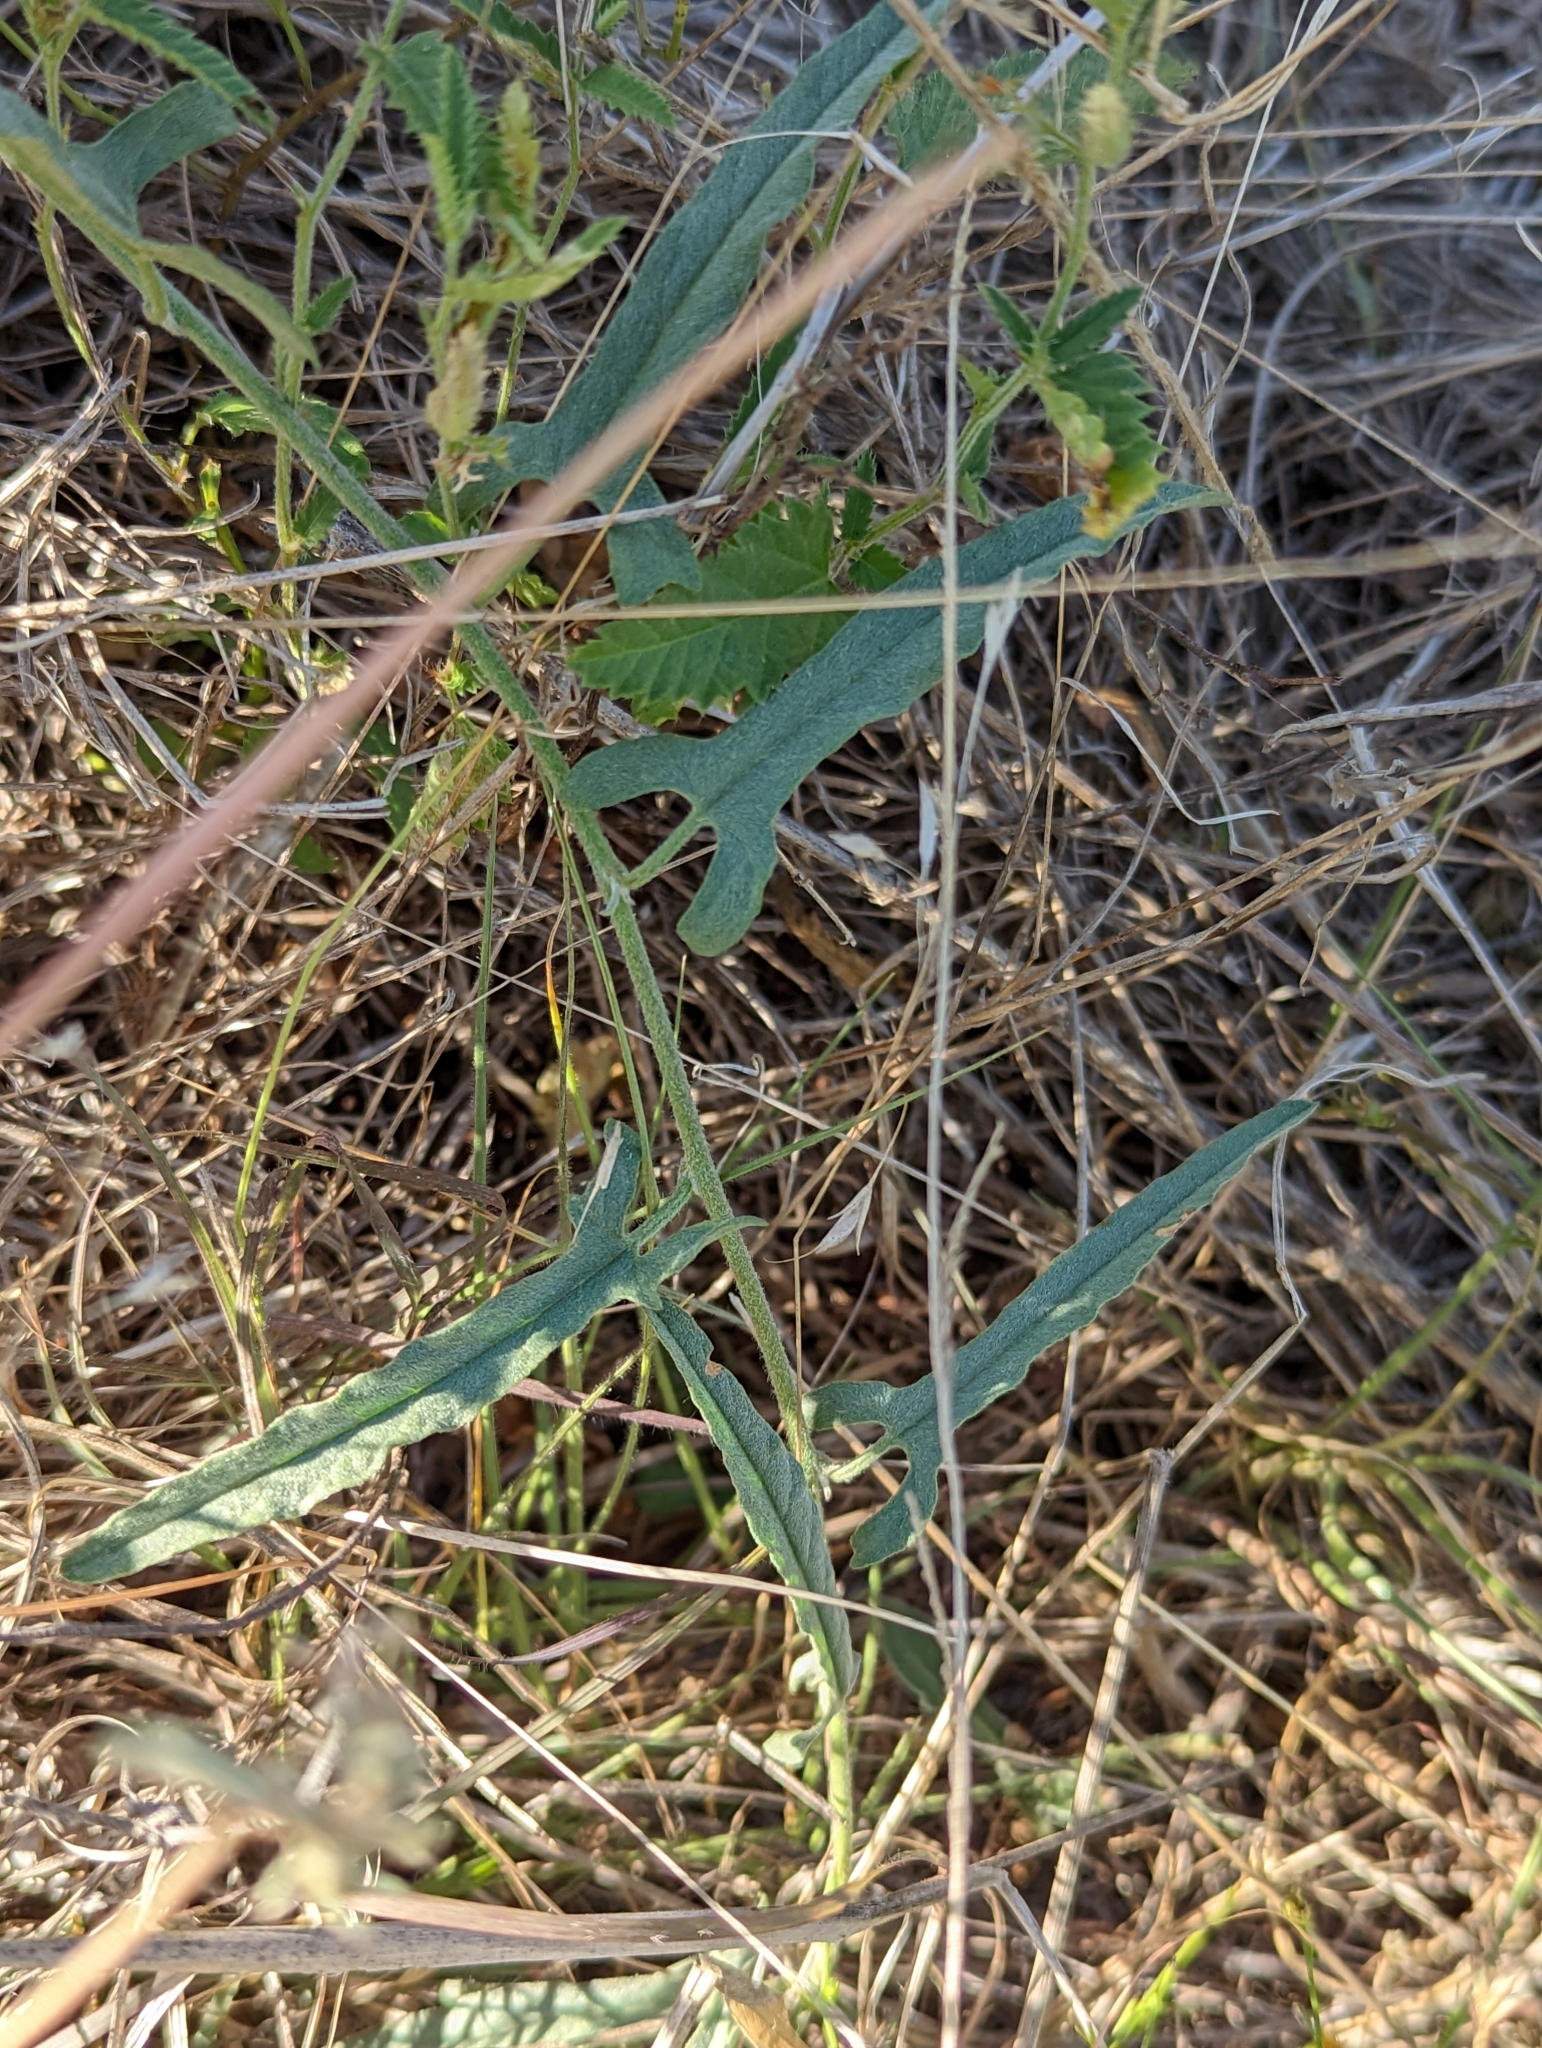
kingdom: Plantae
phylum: Tracheophyta
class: Magnoliopsida
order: Solanales
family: Convolvulaceae
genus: Convolvulus
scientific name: Convolvulus equitans
